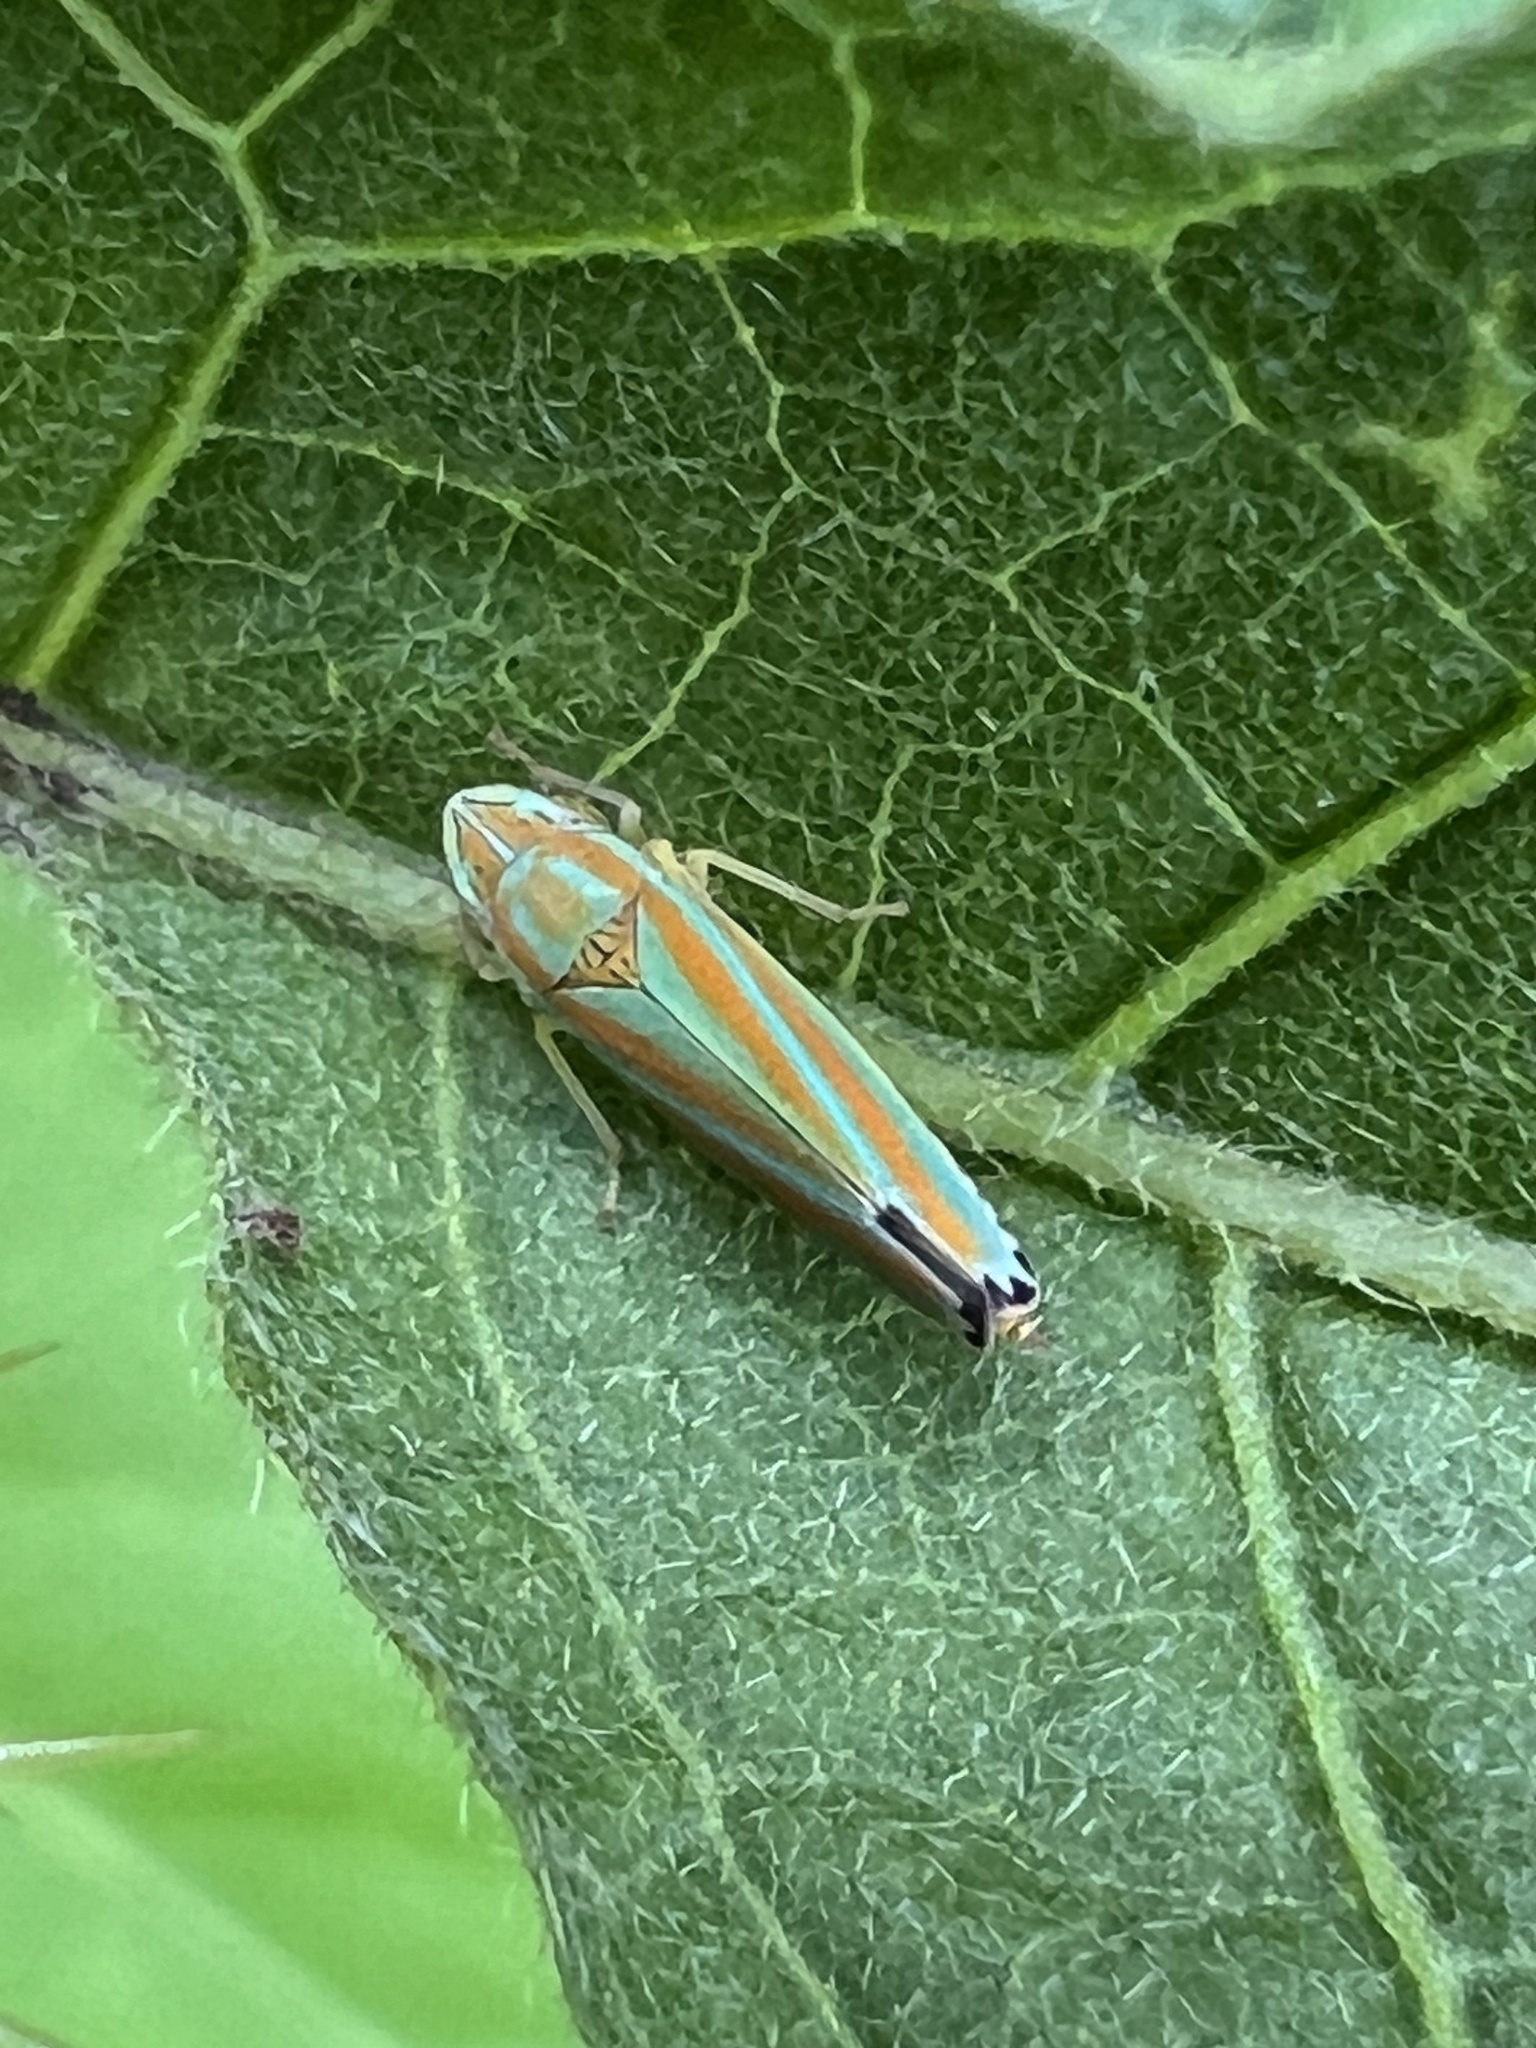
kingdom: Animalia
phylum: Arthropoda
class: Insecta
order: Hemiptera
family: Cicadellidae
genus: Graphocephala
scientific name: Graphocephala versuta
